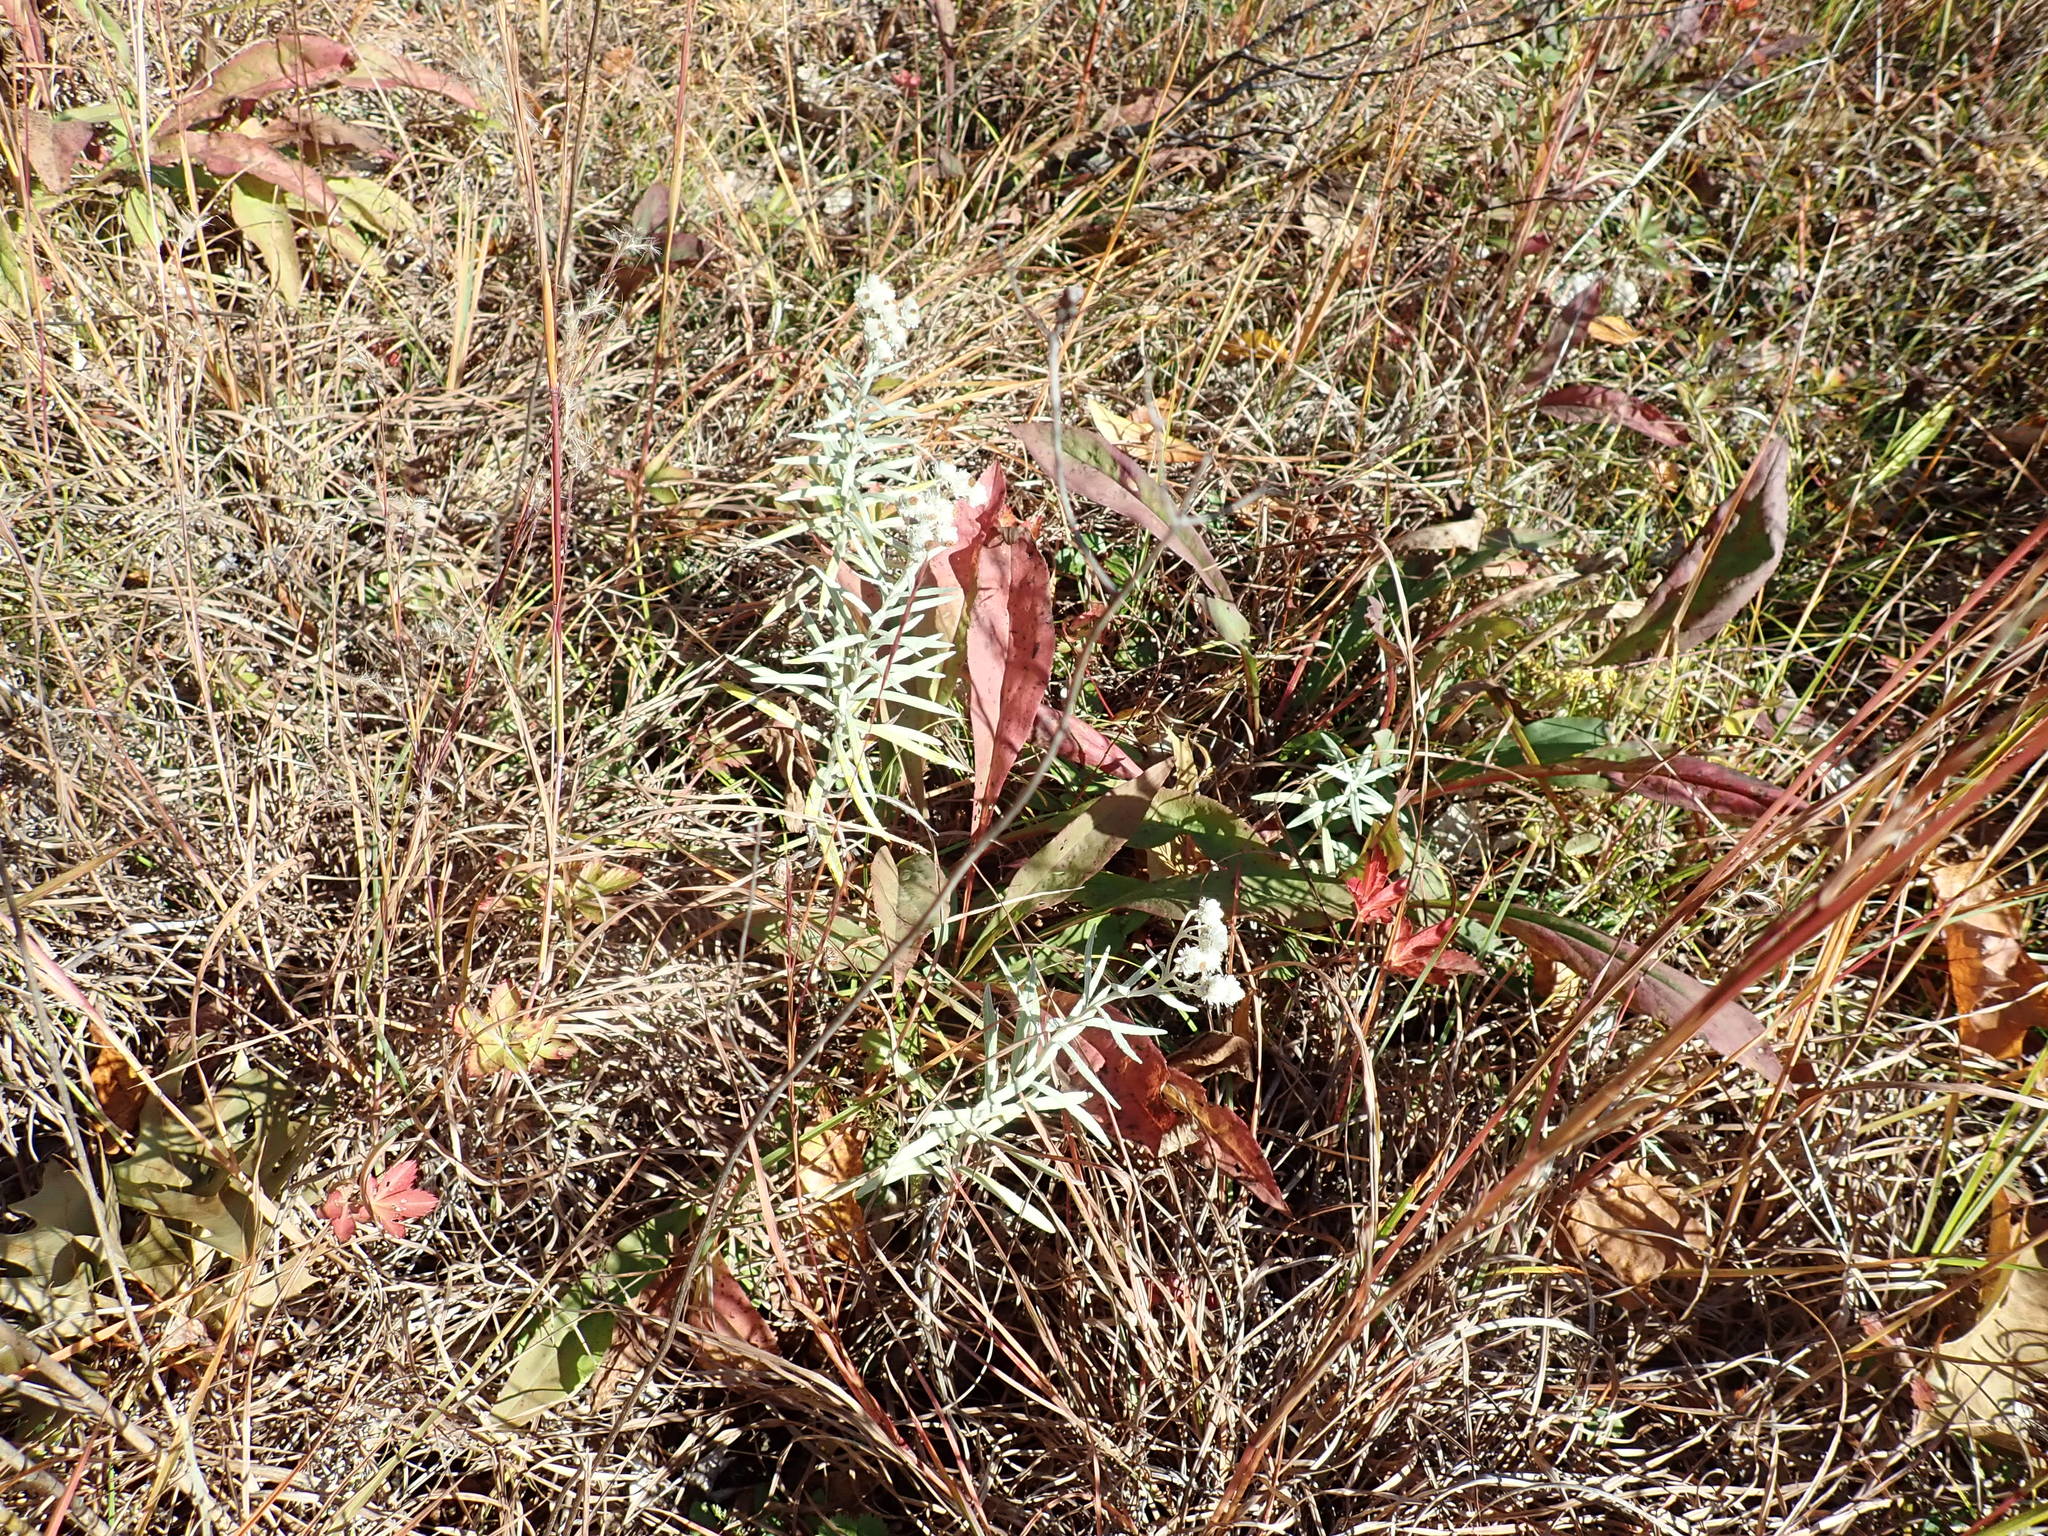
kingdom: Plantae
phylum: Tracheophyta
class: Magnoliopsida
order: Asterales
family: Asteraceae
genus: Anaphalis
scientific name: Anaphalis margaritacea
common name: Pearly everlasting
